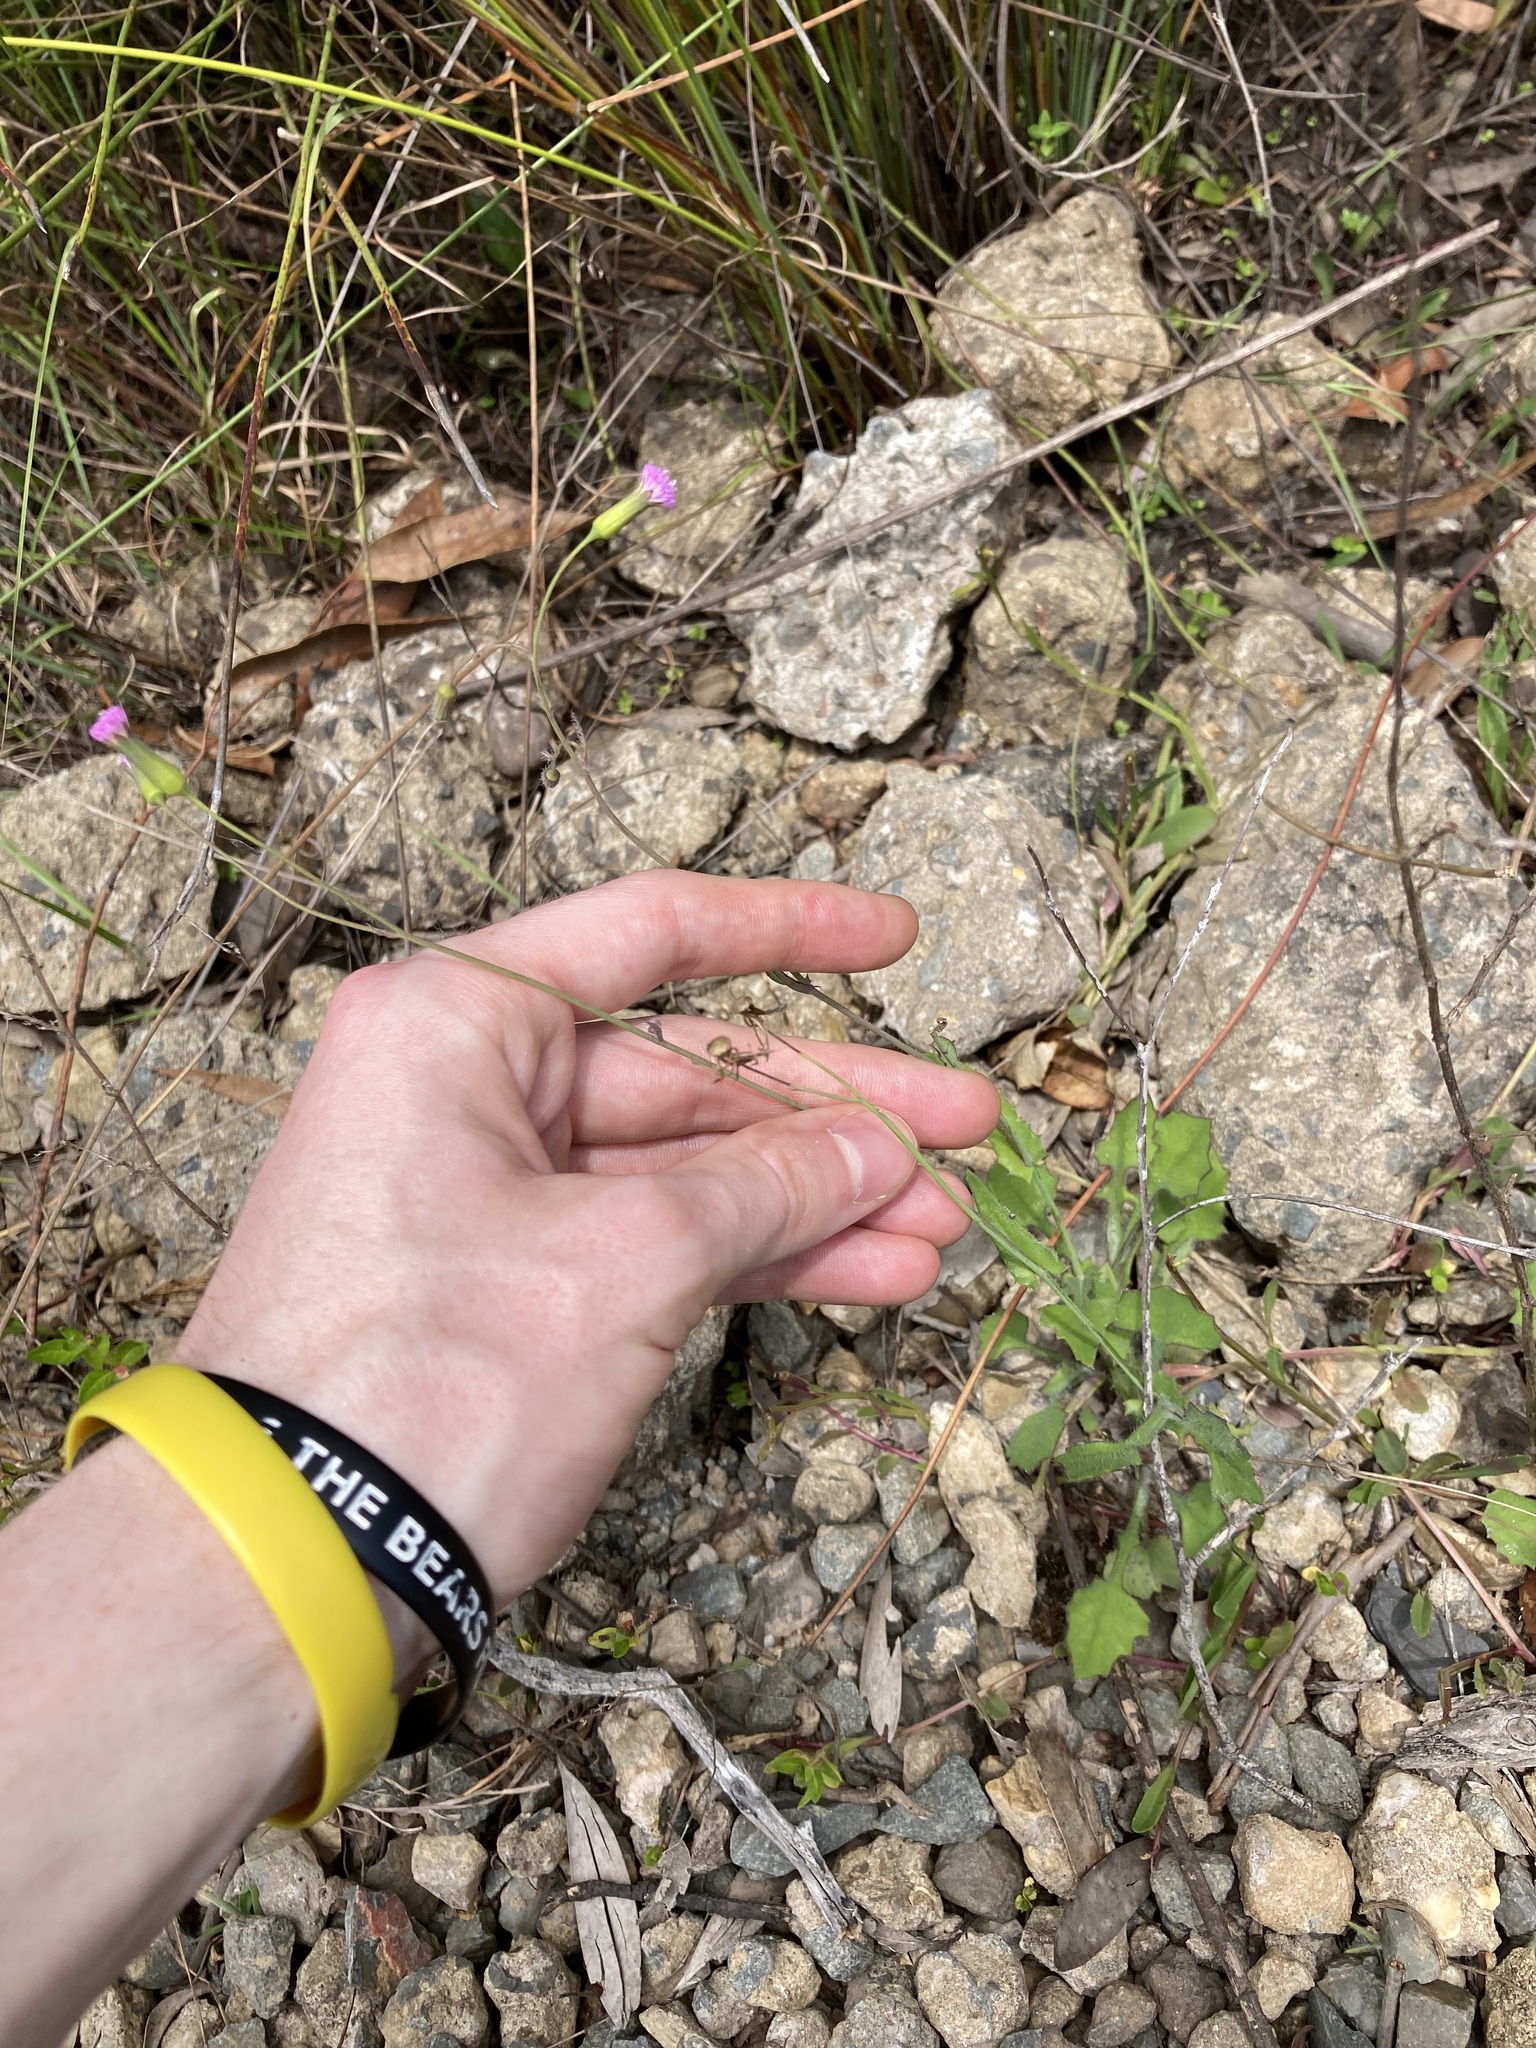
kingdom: Plantae
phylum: Tracheophyta
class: Magnoliopsida
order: Asterales
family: Asteraceae
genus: Emilia
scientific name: Emilia javanica
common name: Tassel-flower
